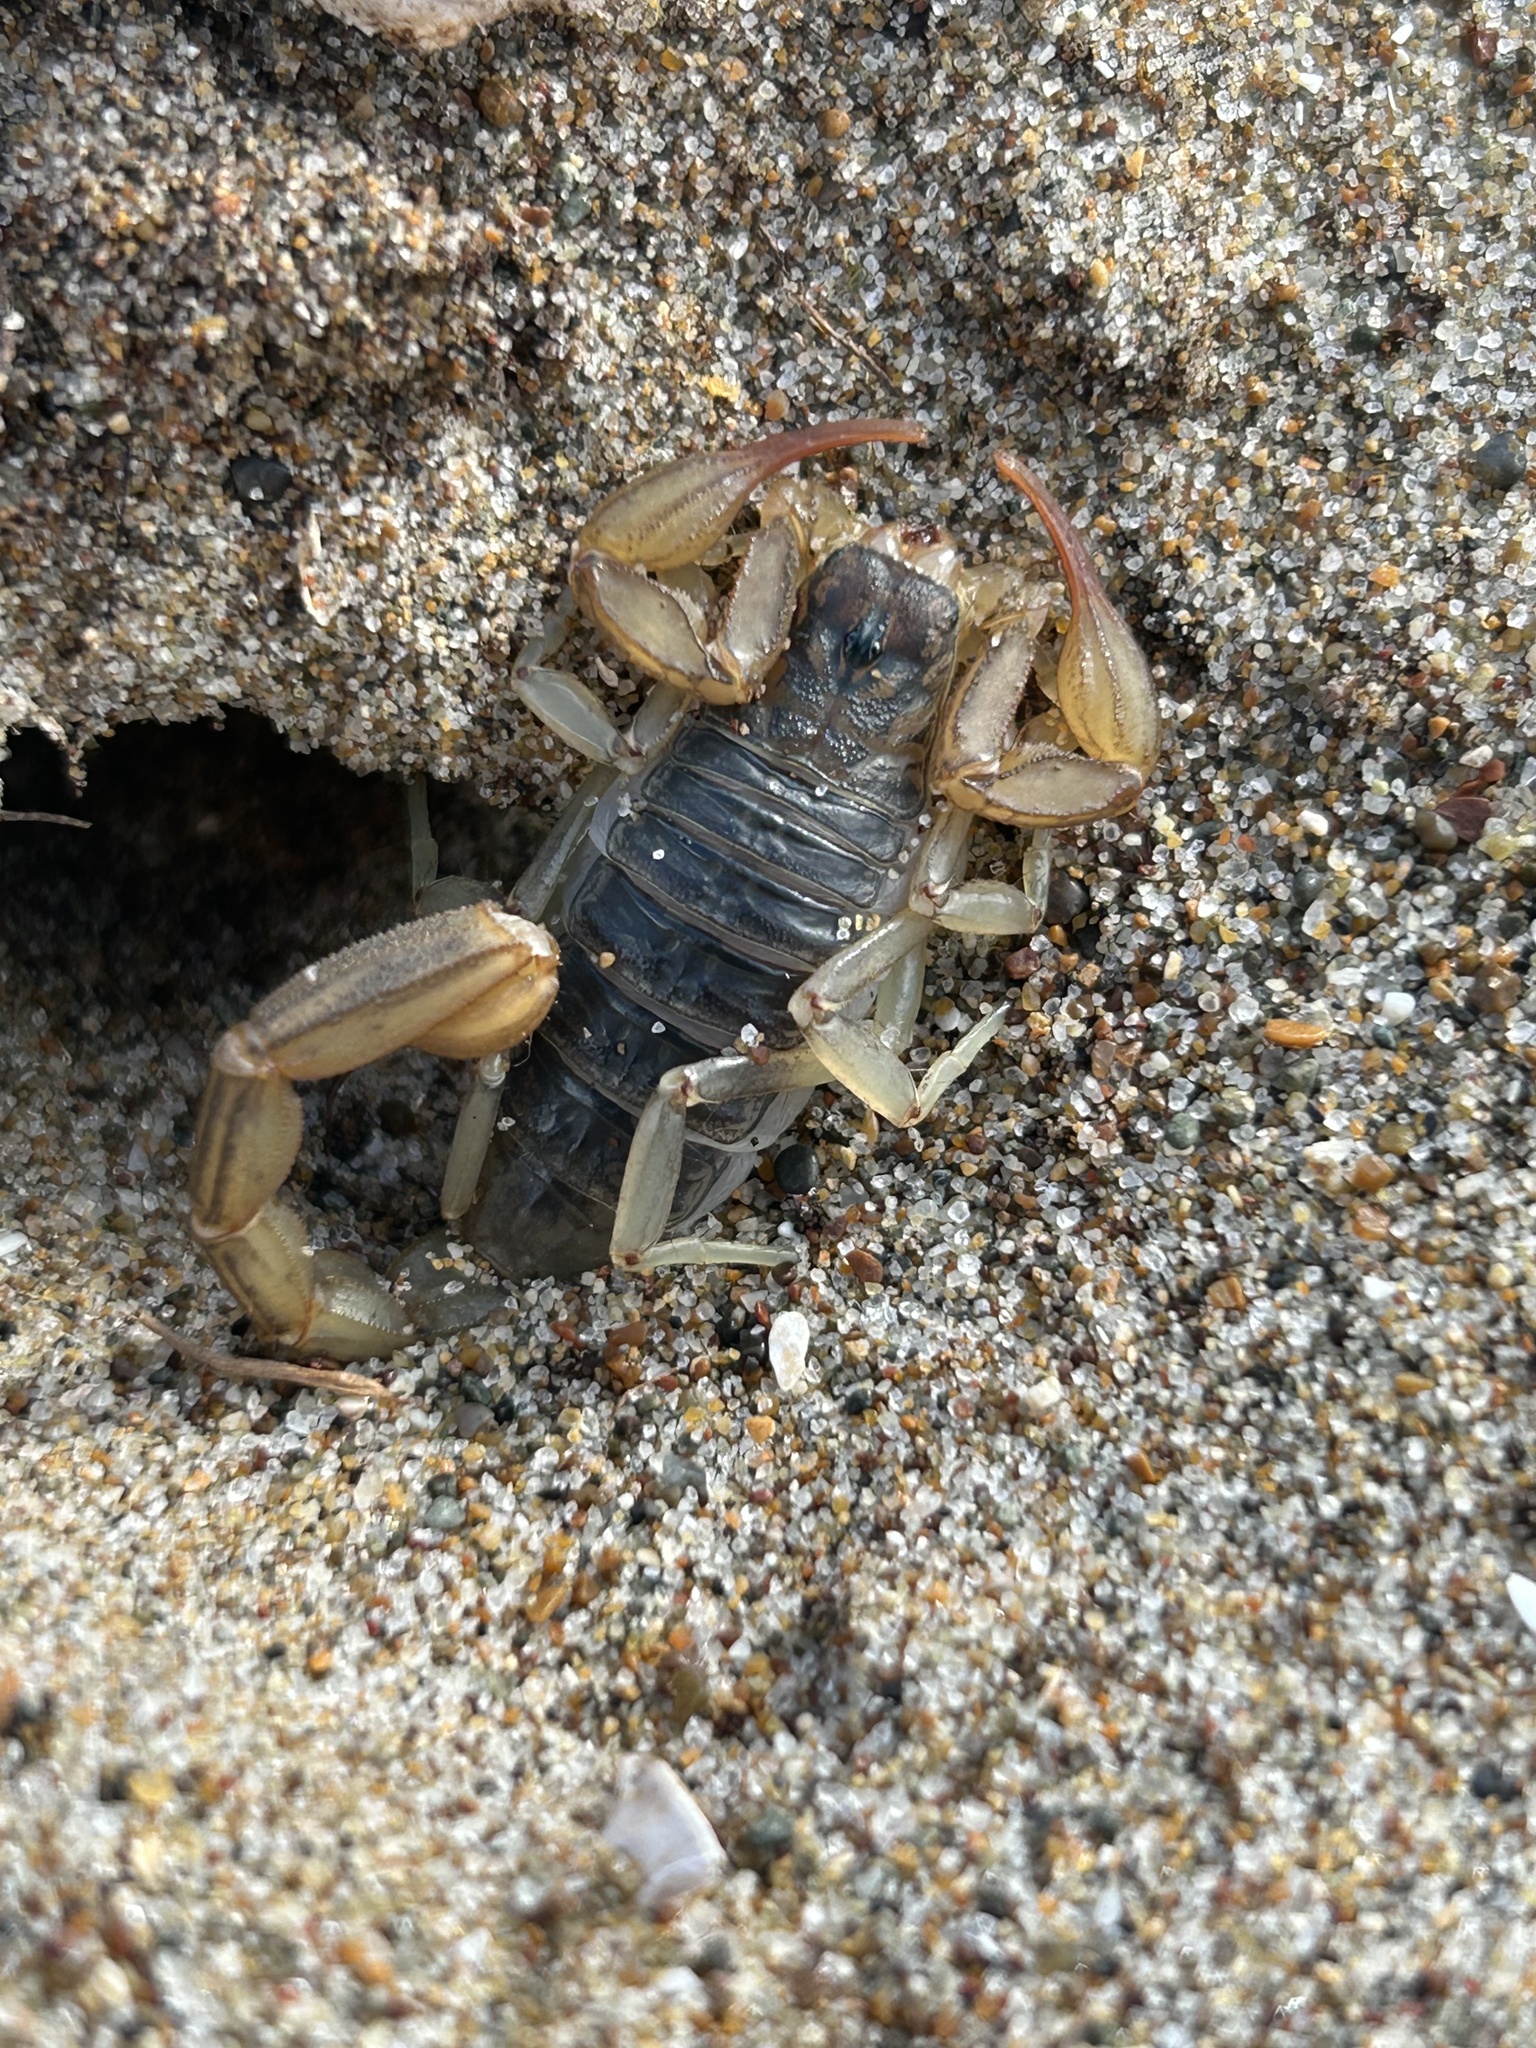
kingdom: Animalia
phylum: Arthropoda
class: Arachnida
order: Scorpiones
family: Vaejovidae
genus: Paruroctonus
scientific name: Paruroctonus silvestrii
